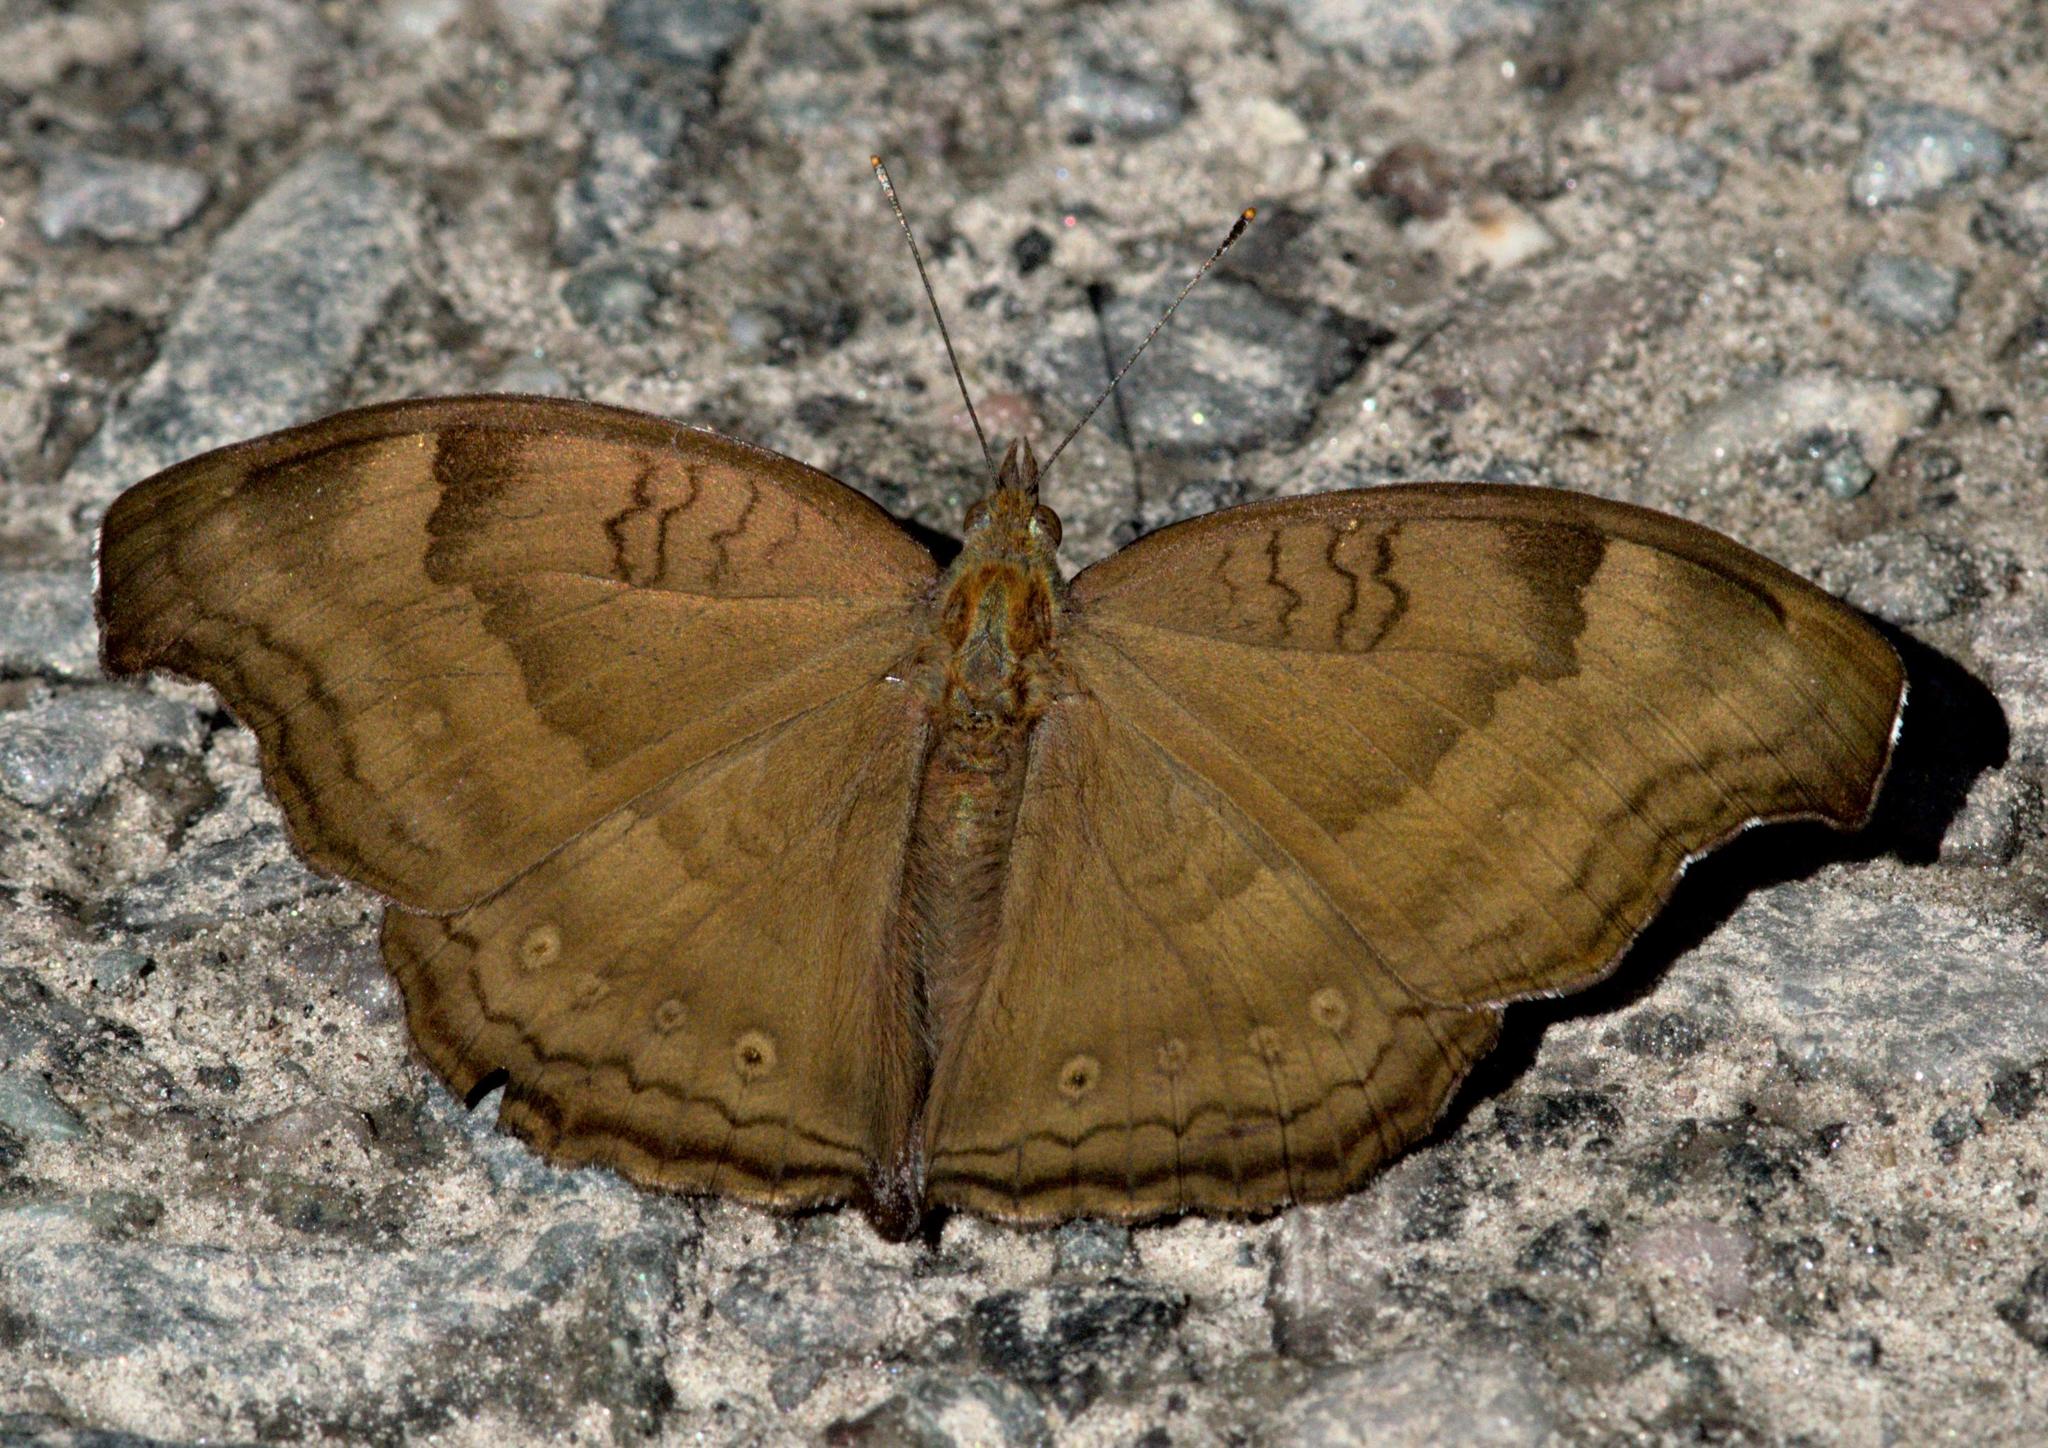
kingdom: Animalia
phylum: Arthropoda
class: Insecta
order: Lepidoptera
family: Nymphalidae
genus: Junonia
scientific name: Junonia iphita
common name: Chocolate pansy
